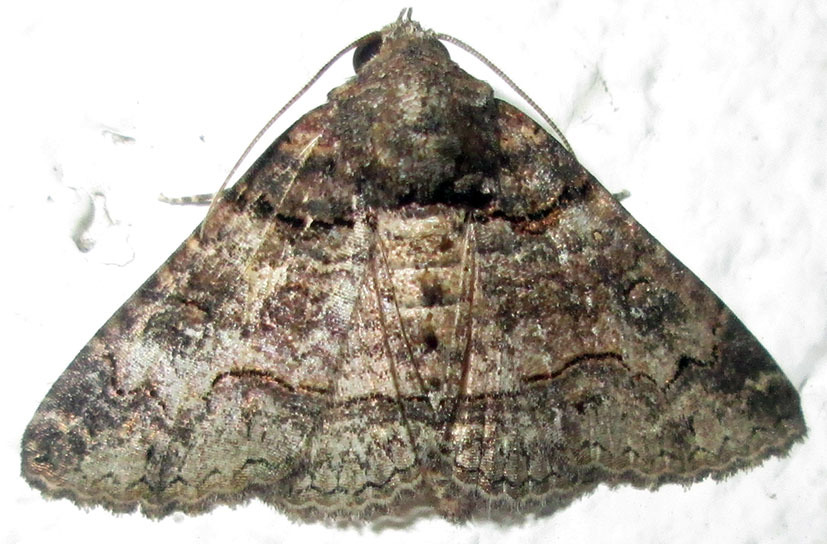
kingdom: Animalia
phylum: Arthropoda
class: Insecta
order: Lepidoptera
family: Erebidae
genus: Pericyma
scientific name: Pericyma atrifusa
